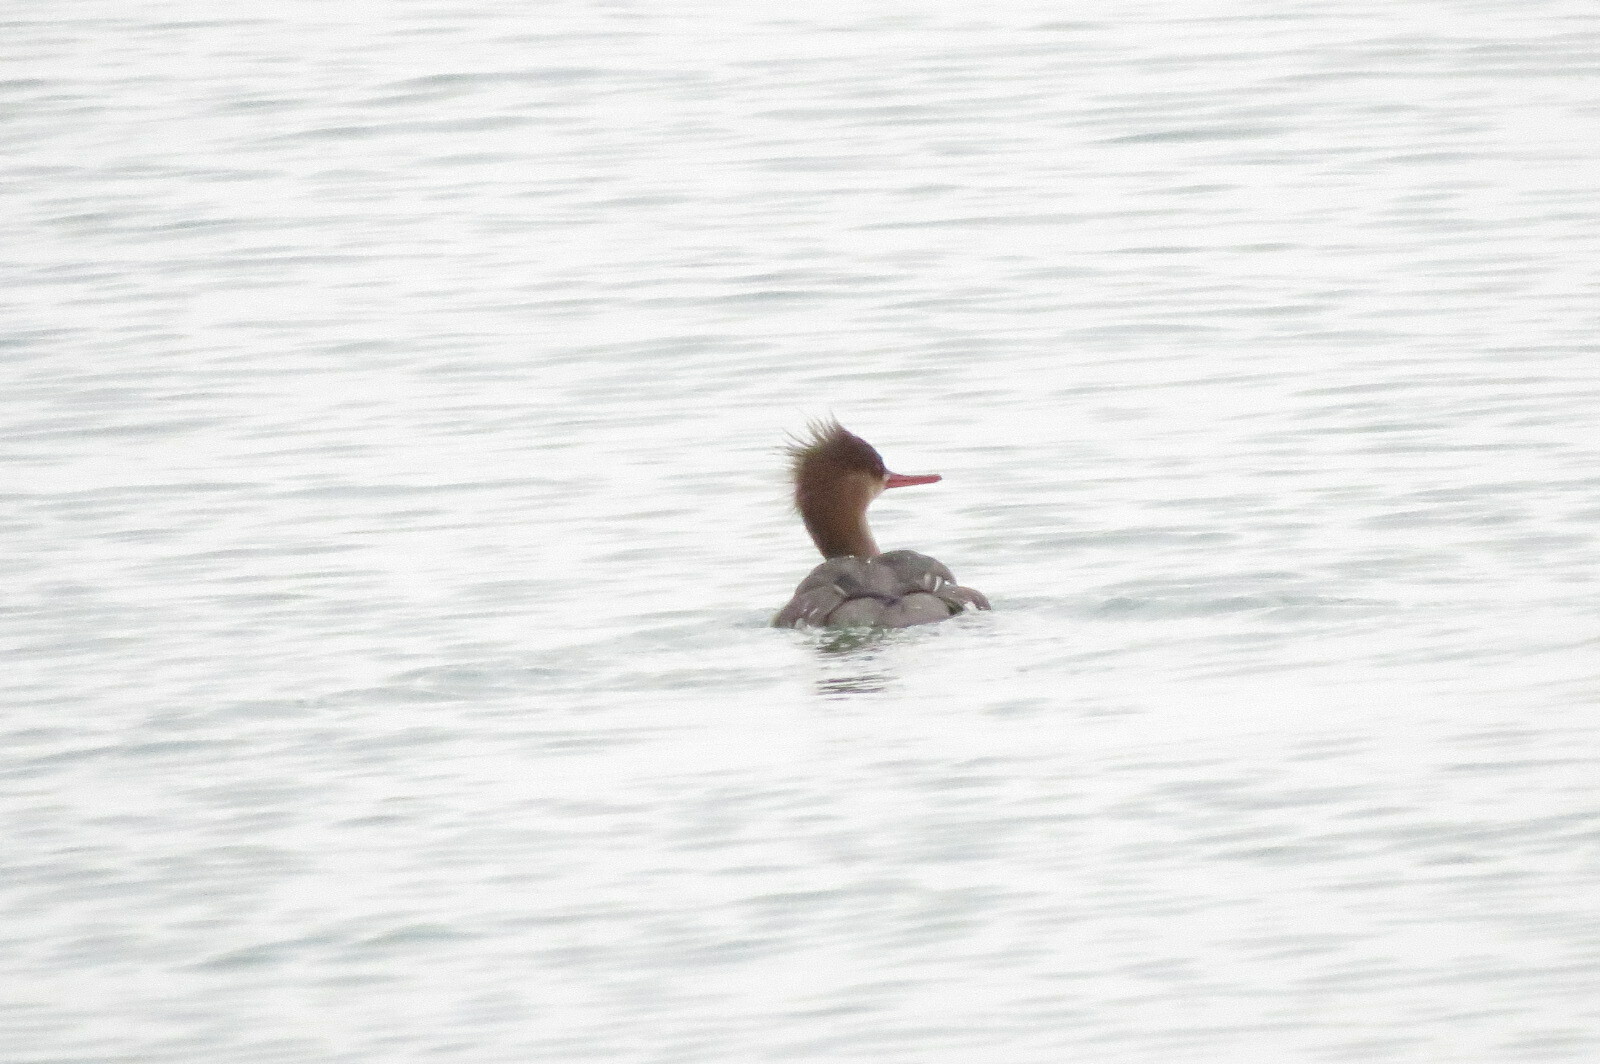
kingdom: Animalia
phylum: Chordata
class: Aves
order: Anseriformes
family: Anatidae
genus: Mergus
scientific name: Mergus serrator
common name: Red-breasted merganser
